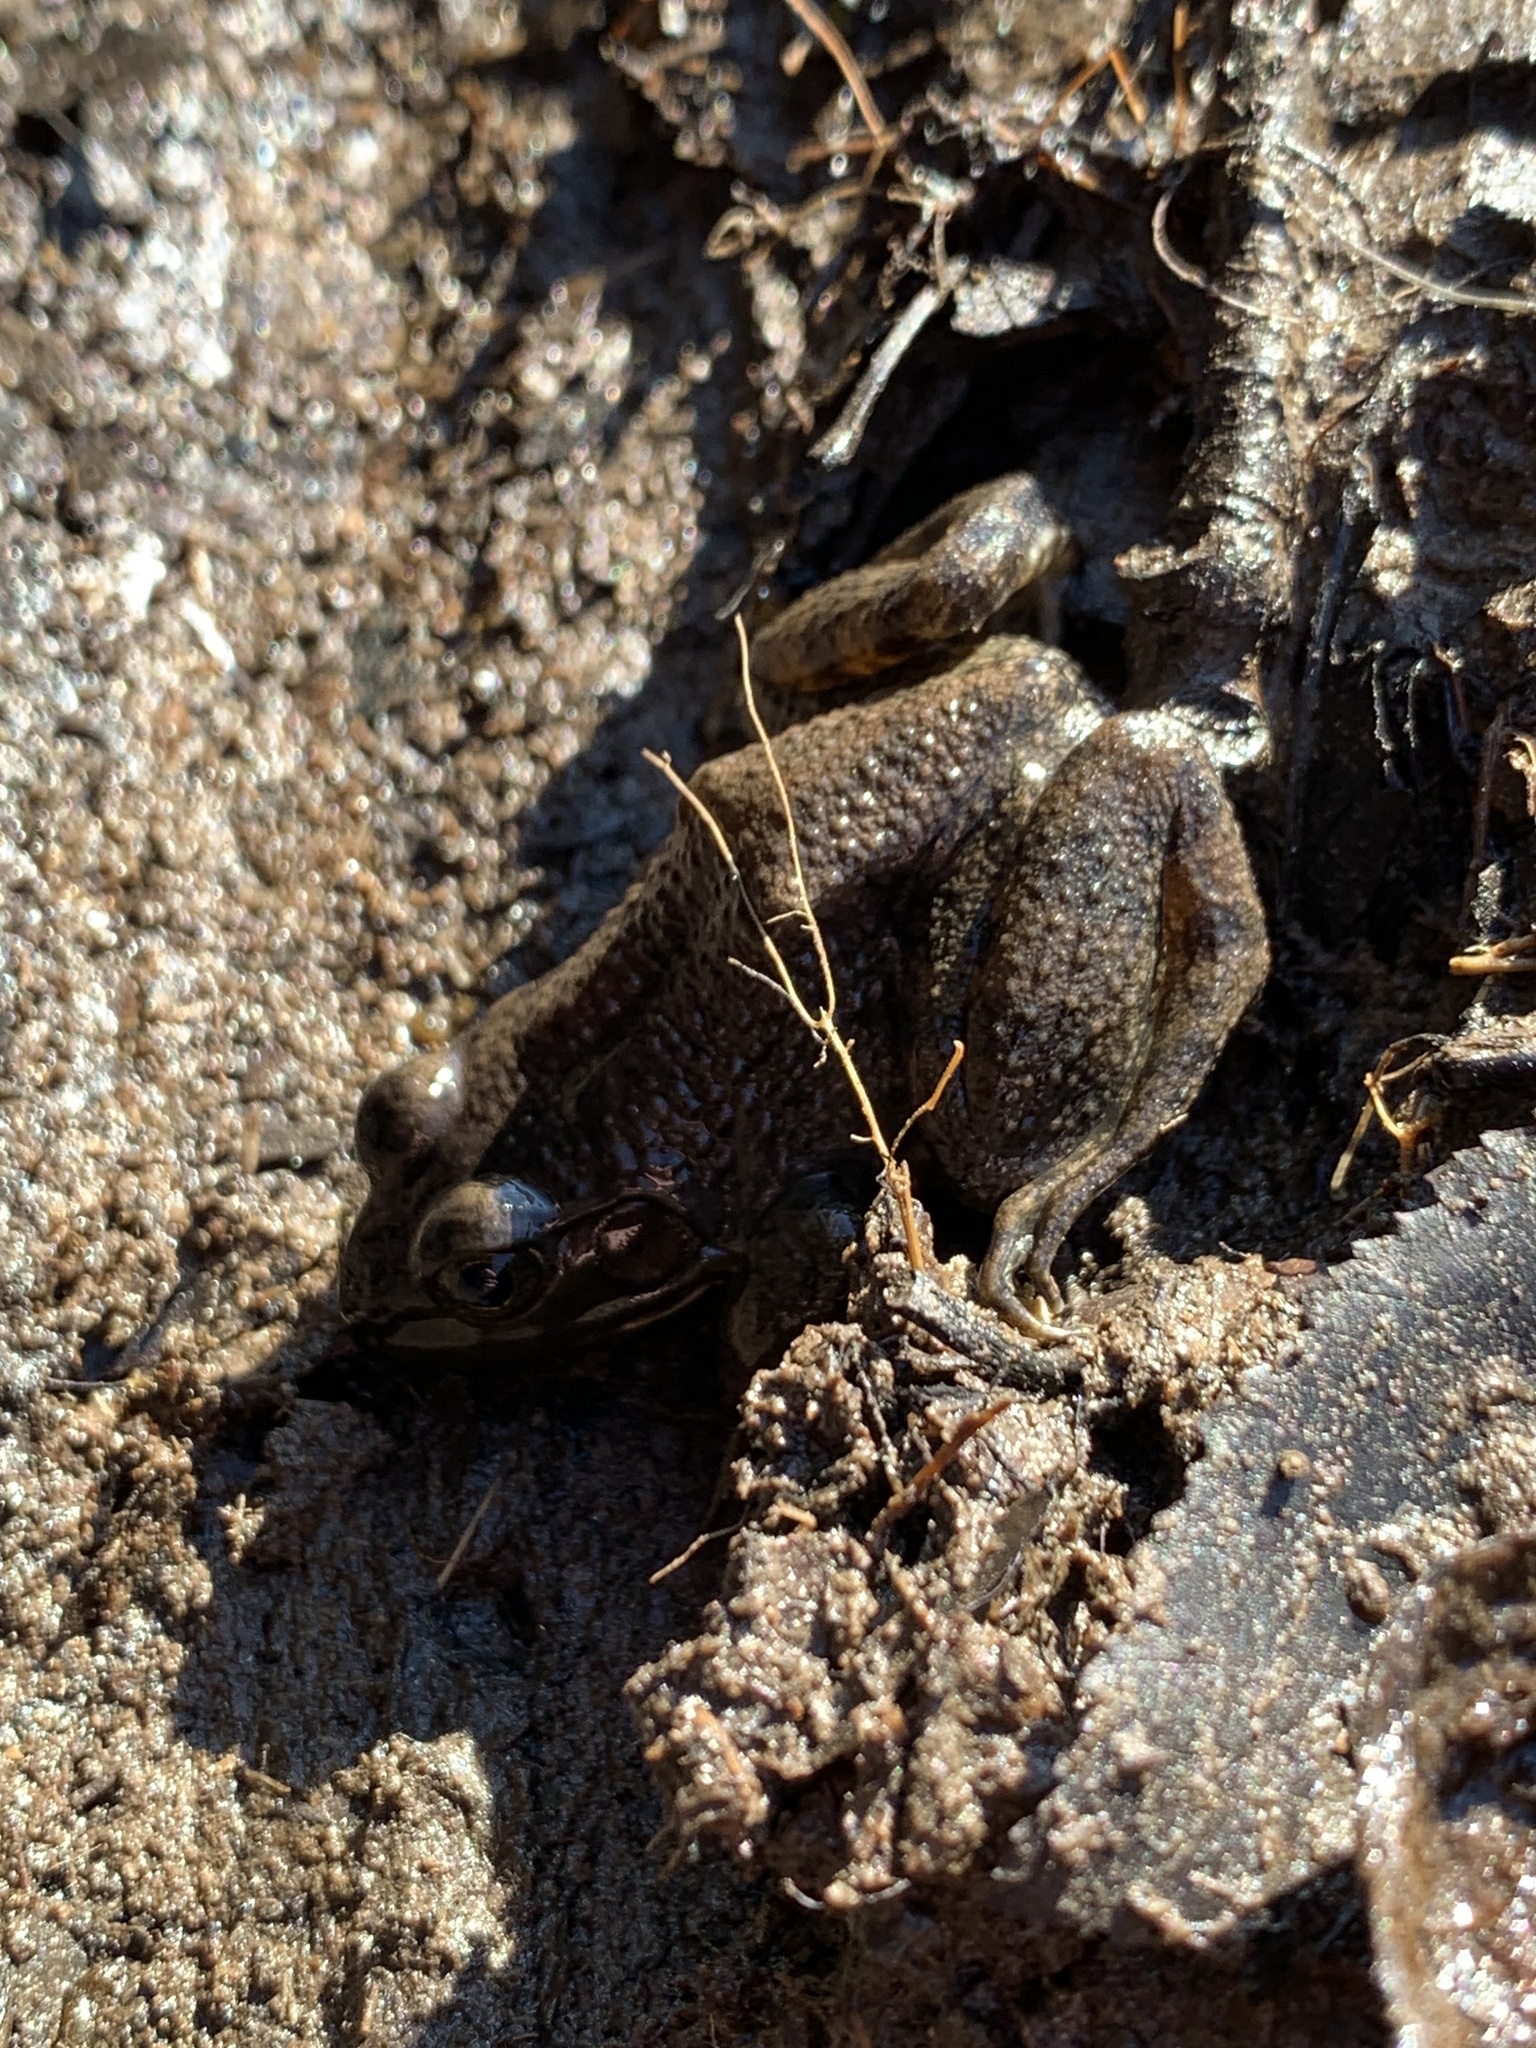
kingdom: Animalia
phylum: Chordata
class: Amphibia
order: Anura
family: Ranidae
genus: Lithobates
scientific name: Lithobates catesbeianus
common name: American bullfrog
